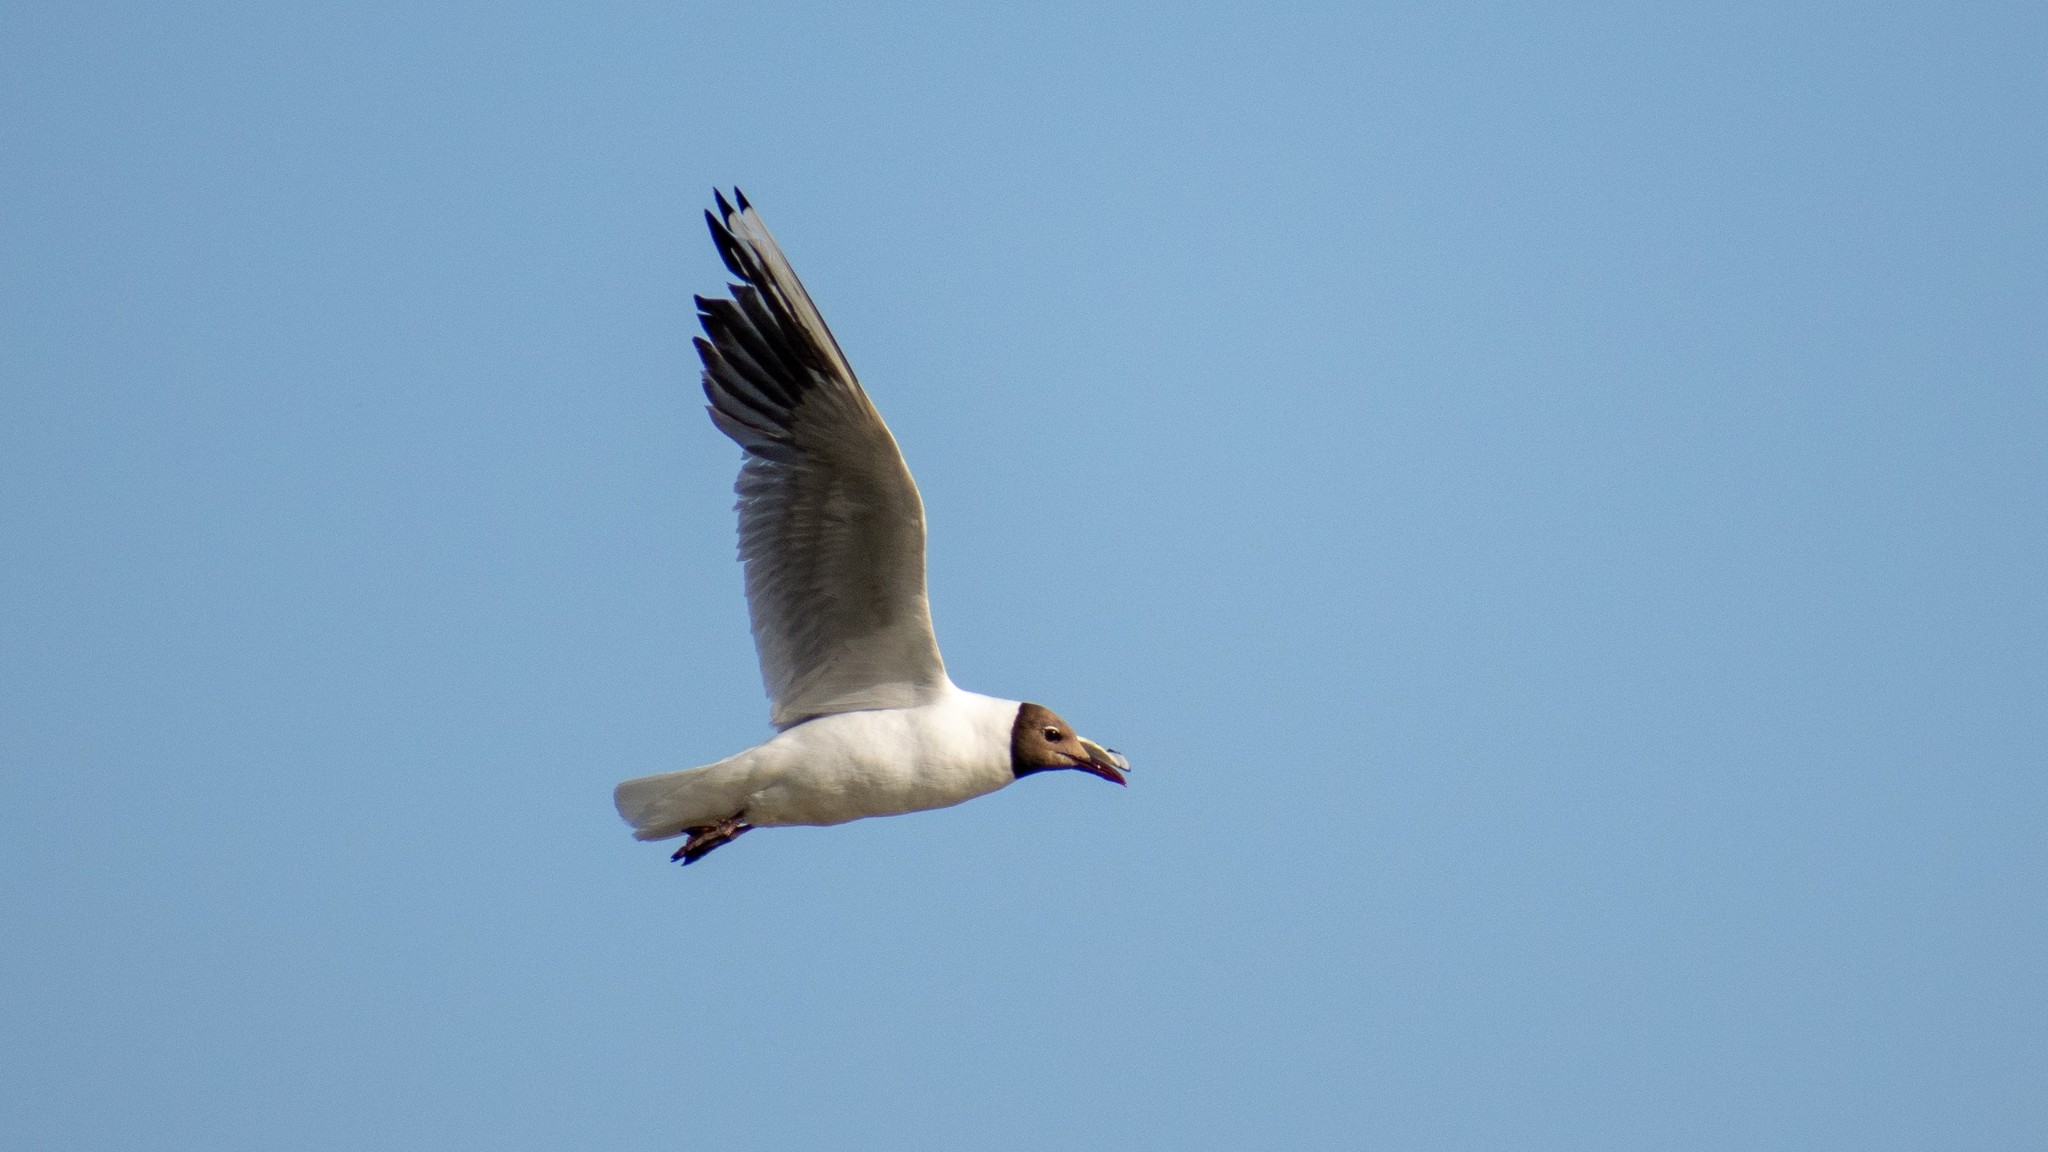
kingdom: Animalia
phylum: Chordata
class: Aves
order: Charadriiformes
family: Laridae
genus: Chroicocephalus
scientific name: Chroicocephalus ridibundus
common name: Black-headed gull
